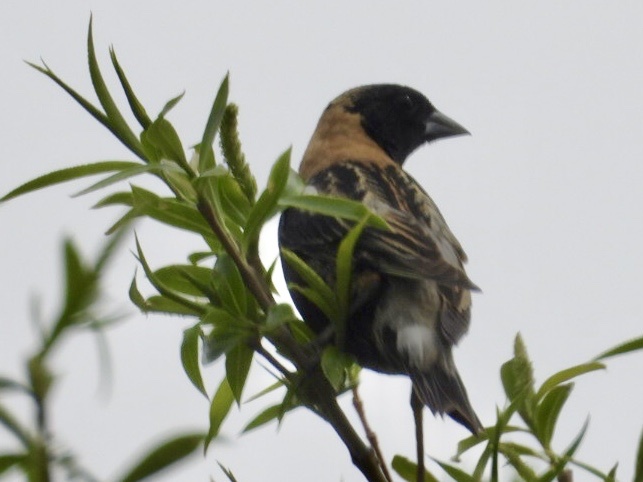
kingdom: Animalia
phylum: Chordata
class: Aves
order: Passeriformes
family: Icteridae
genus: Dolichonyx
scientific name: Dolichonyx oryzivorus
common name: Bobolink
